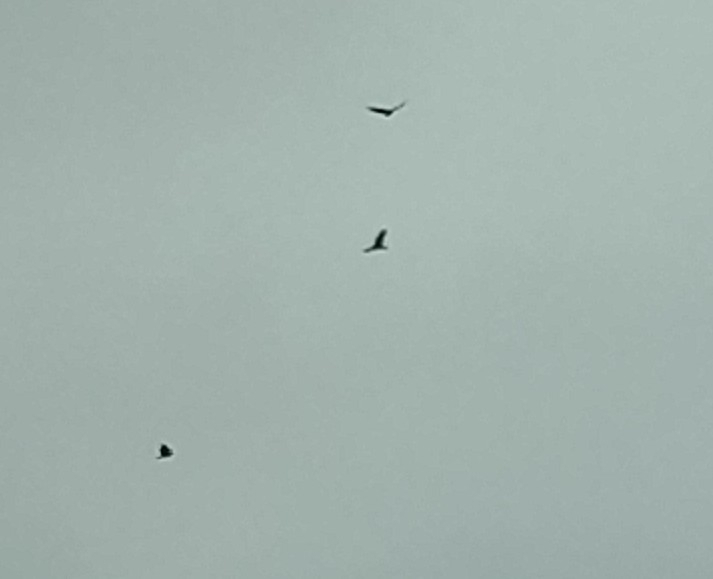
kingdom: Animalia
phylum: Chordata
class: Aves
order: Accipitriformes
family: Cathartidae
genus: Cathartes
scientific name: Cathartes aura
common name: Turkey vulture
